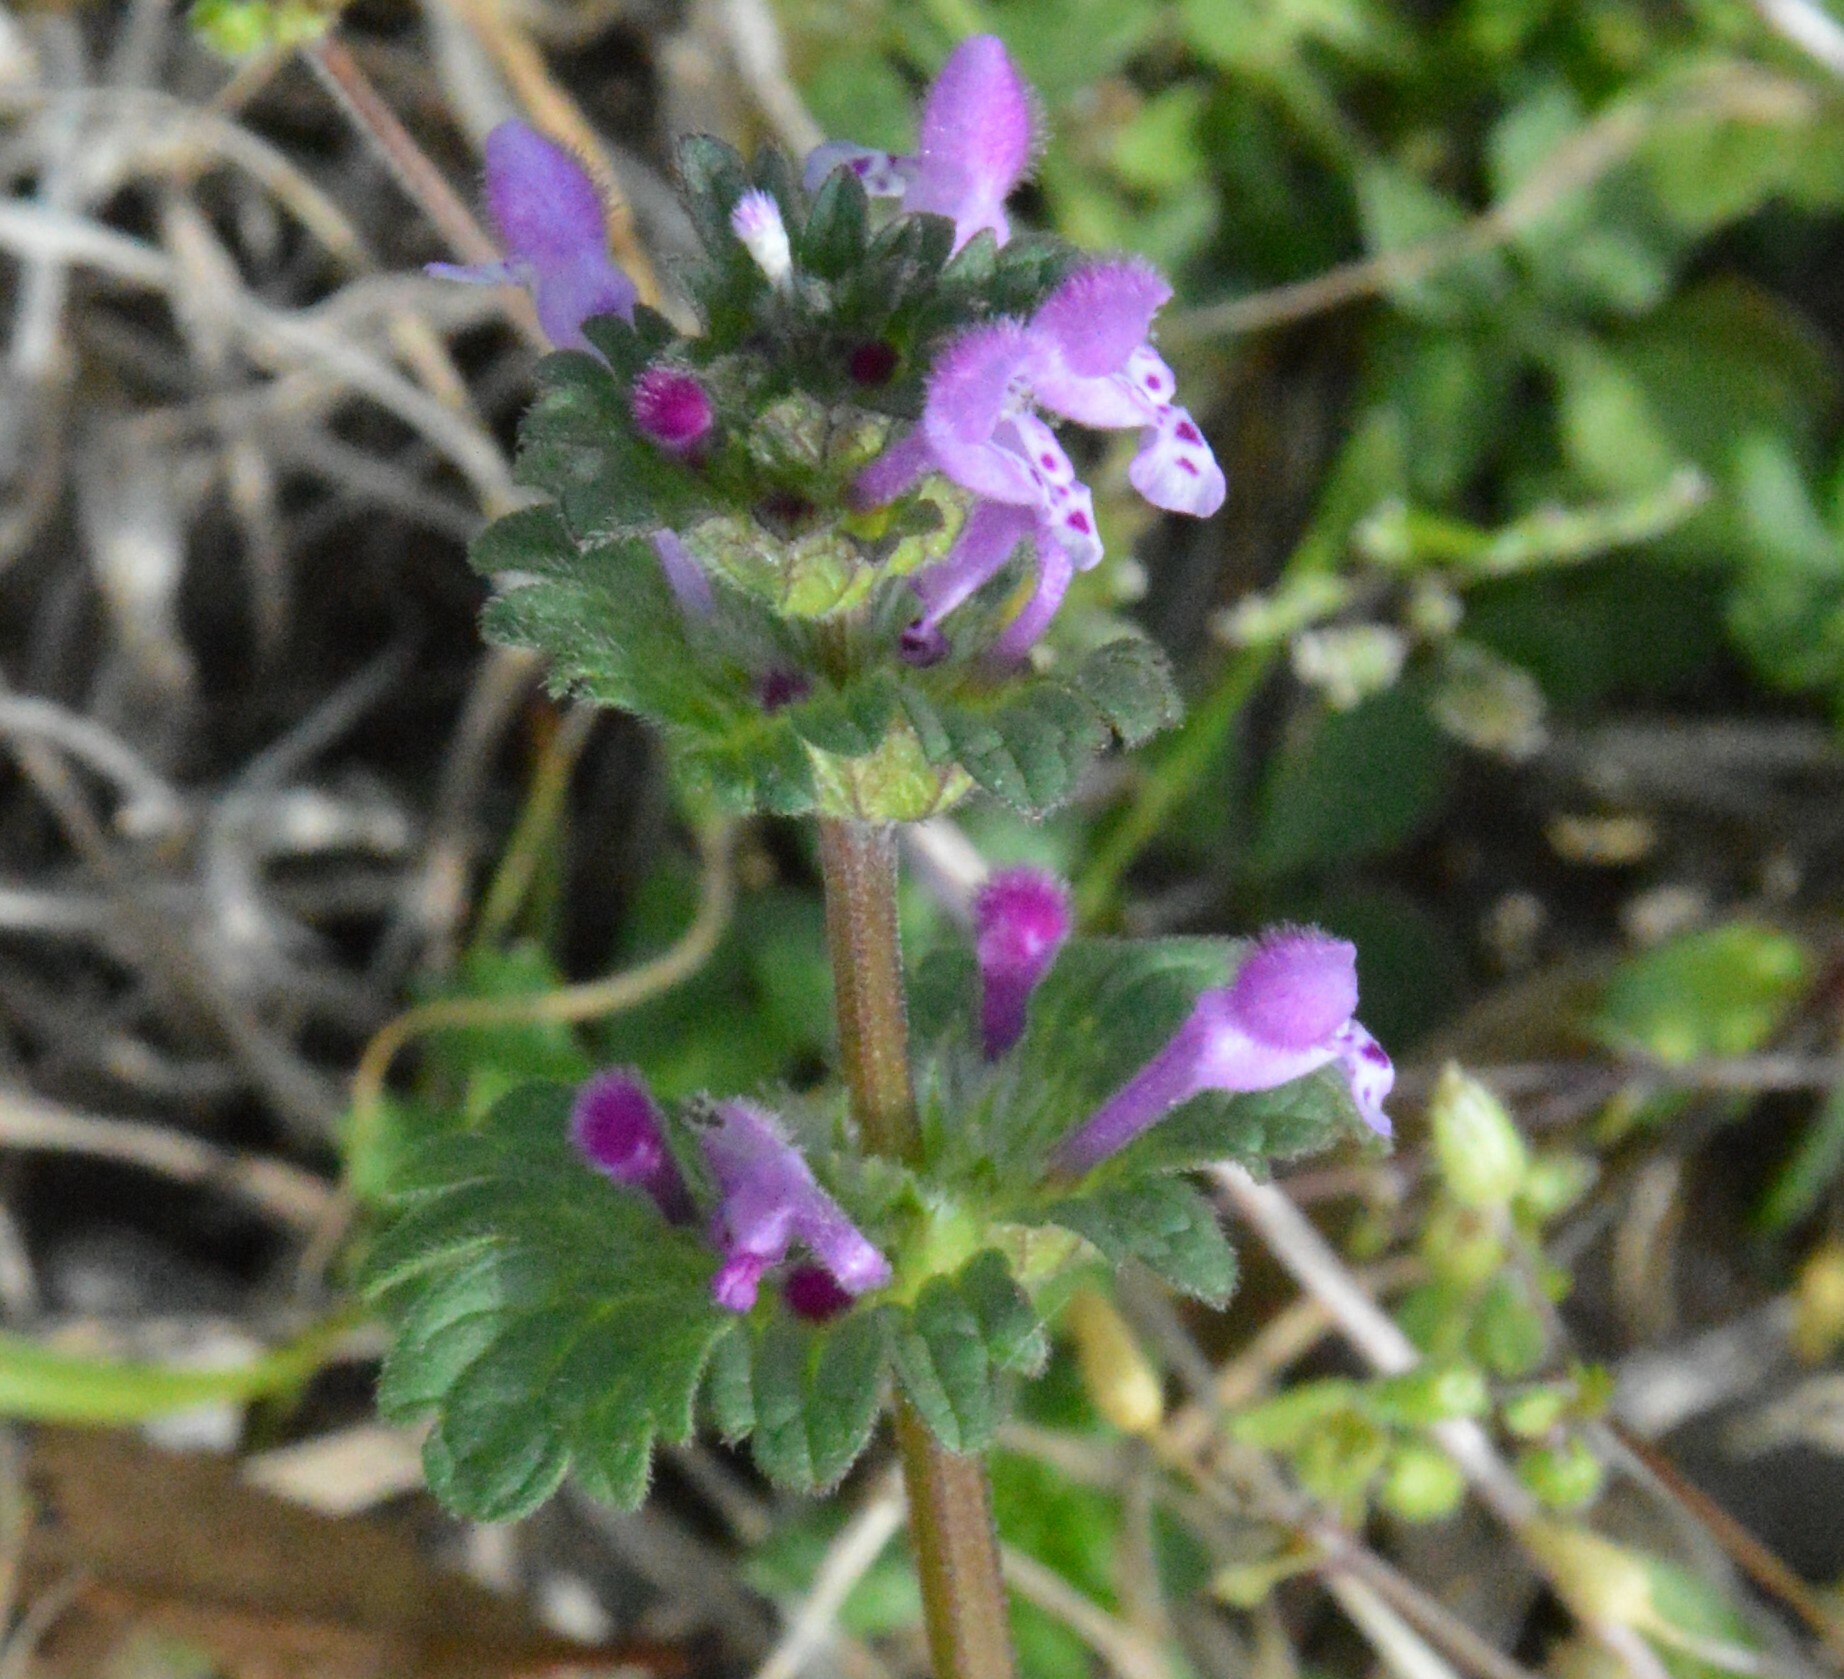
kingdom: Plantae
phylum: Tracheophyta
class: Magnoliopsida
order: Lamiales
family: Lamiaceae
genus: Lamium
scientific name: Lamium amplexicaule
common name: Henbit dead-nettle
